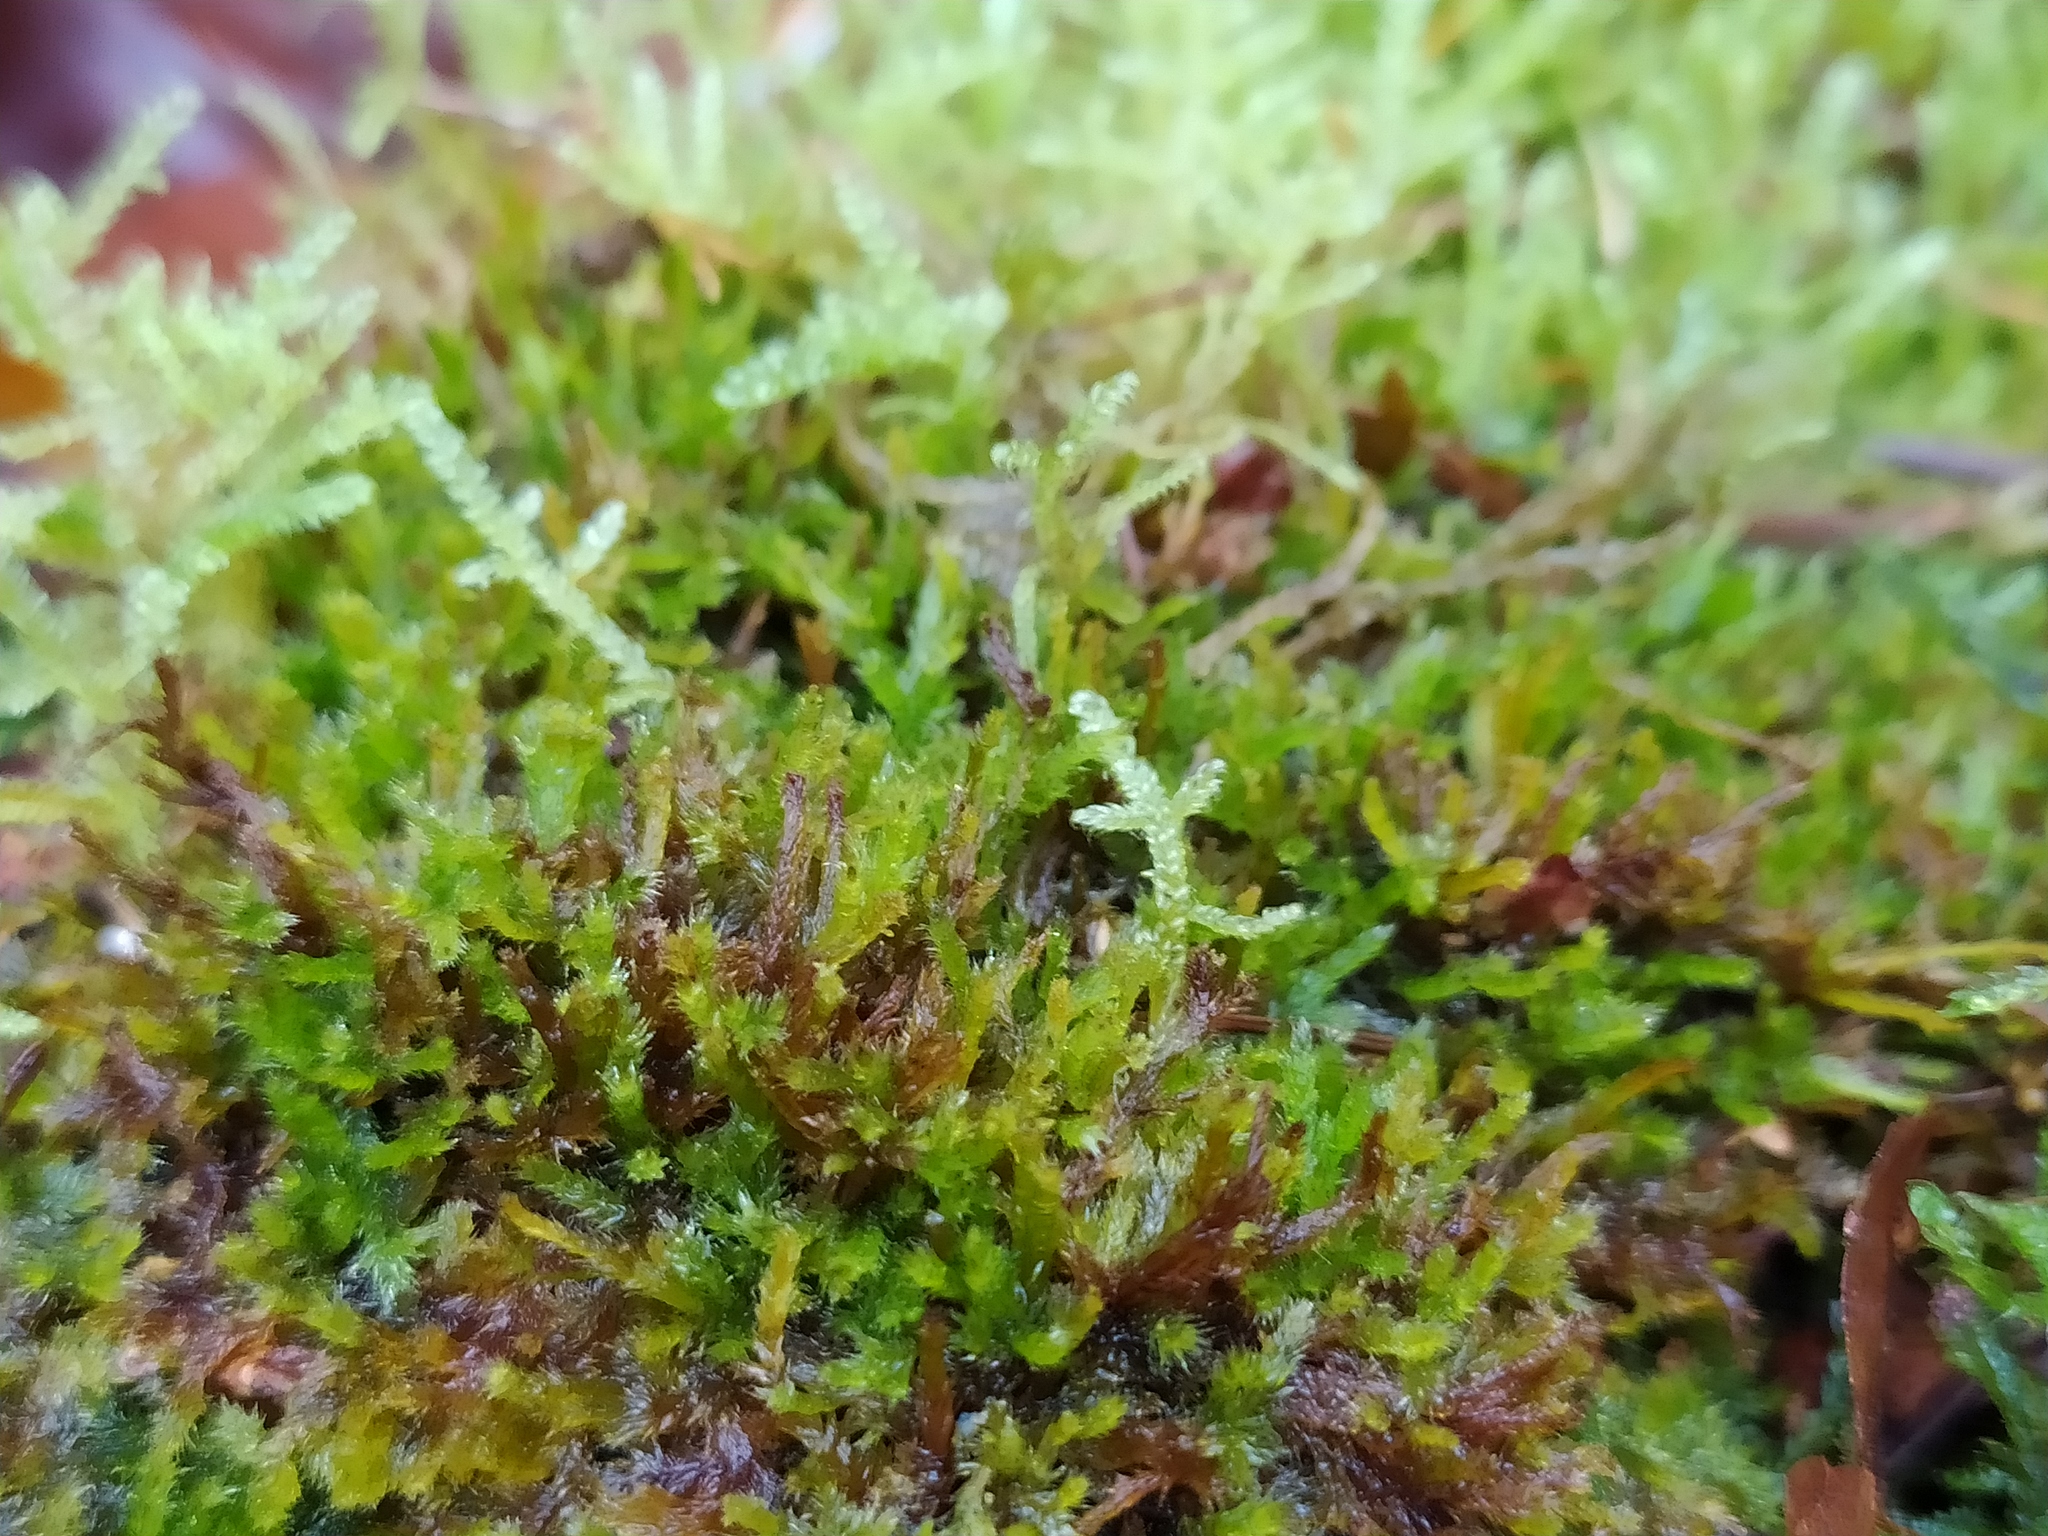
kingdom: Plantae
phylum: Bryophyta
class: Bryopsida
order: Hypnales
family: Pylaisiadelphaceae
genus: Platygyrium
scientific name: Platygyrium repens
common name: Flat-brocade moss
